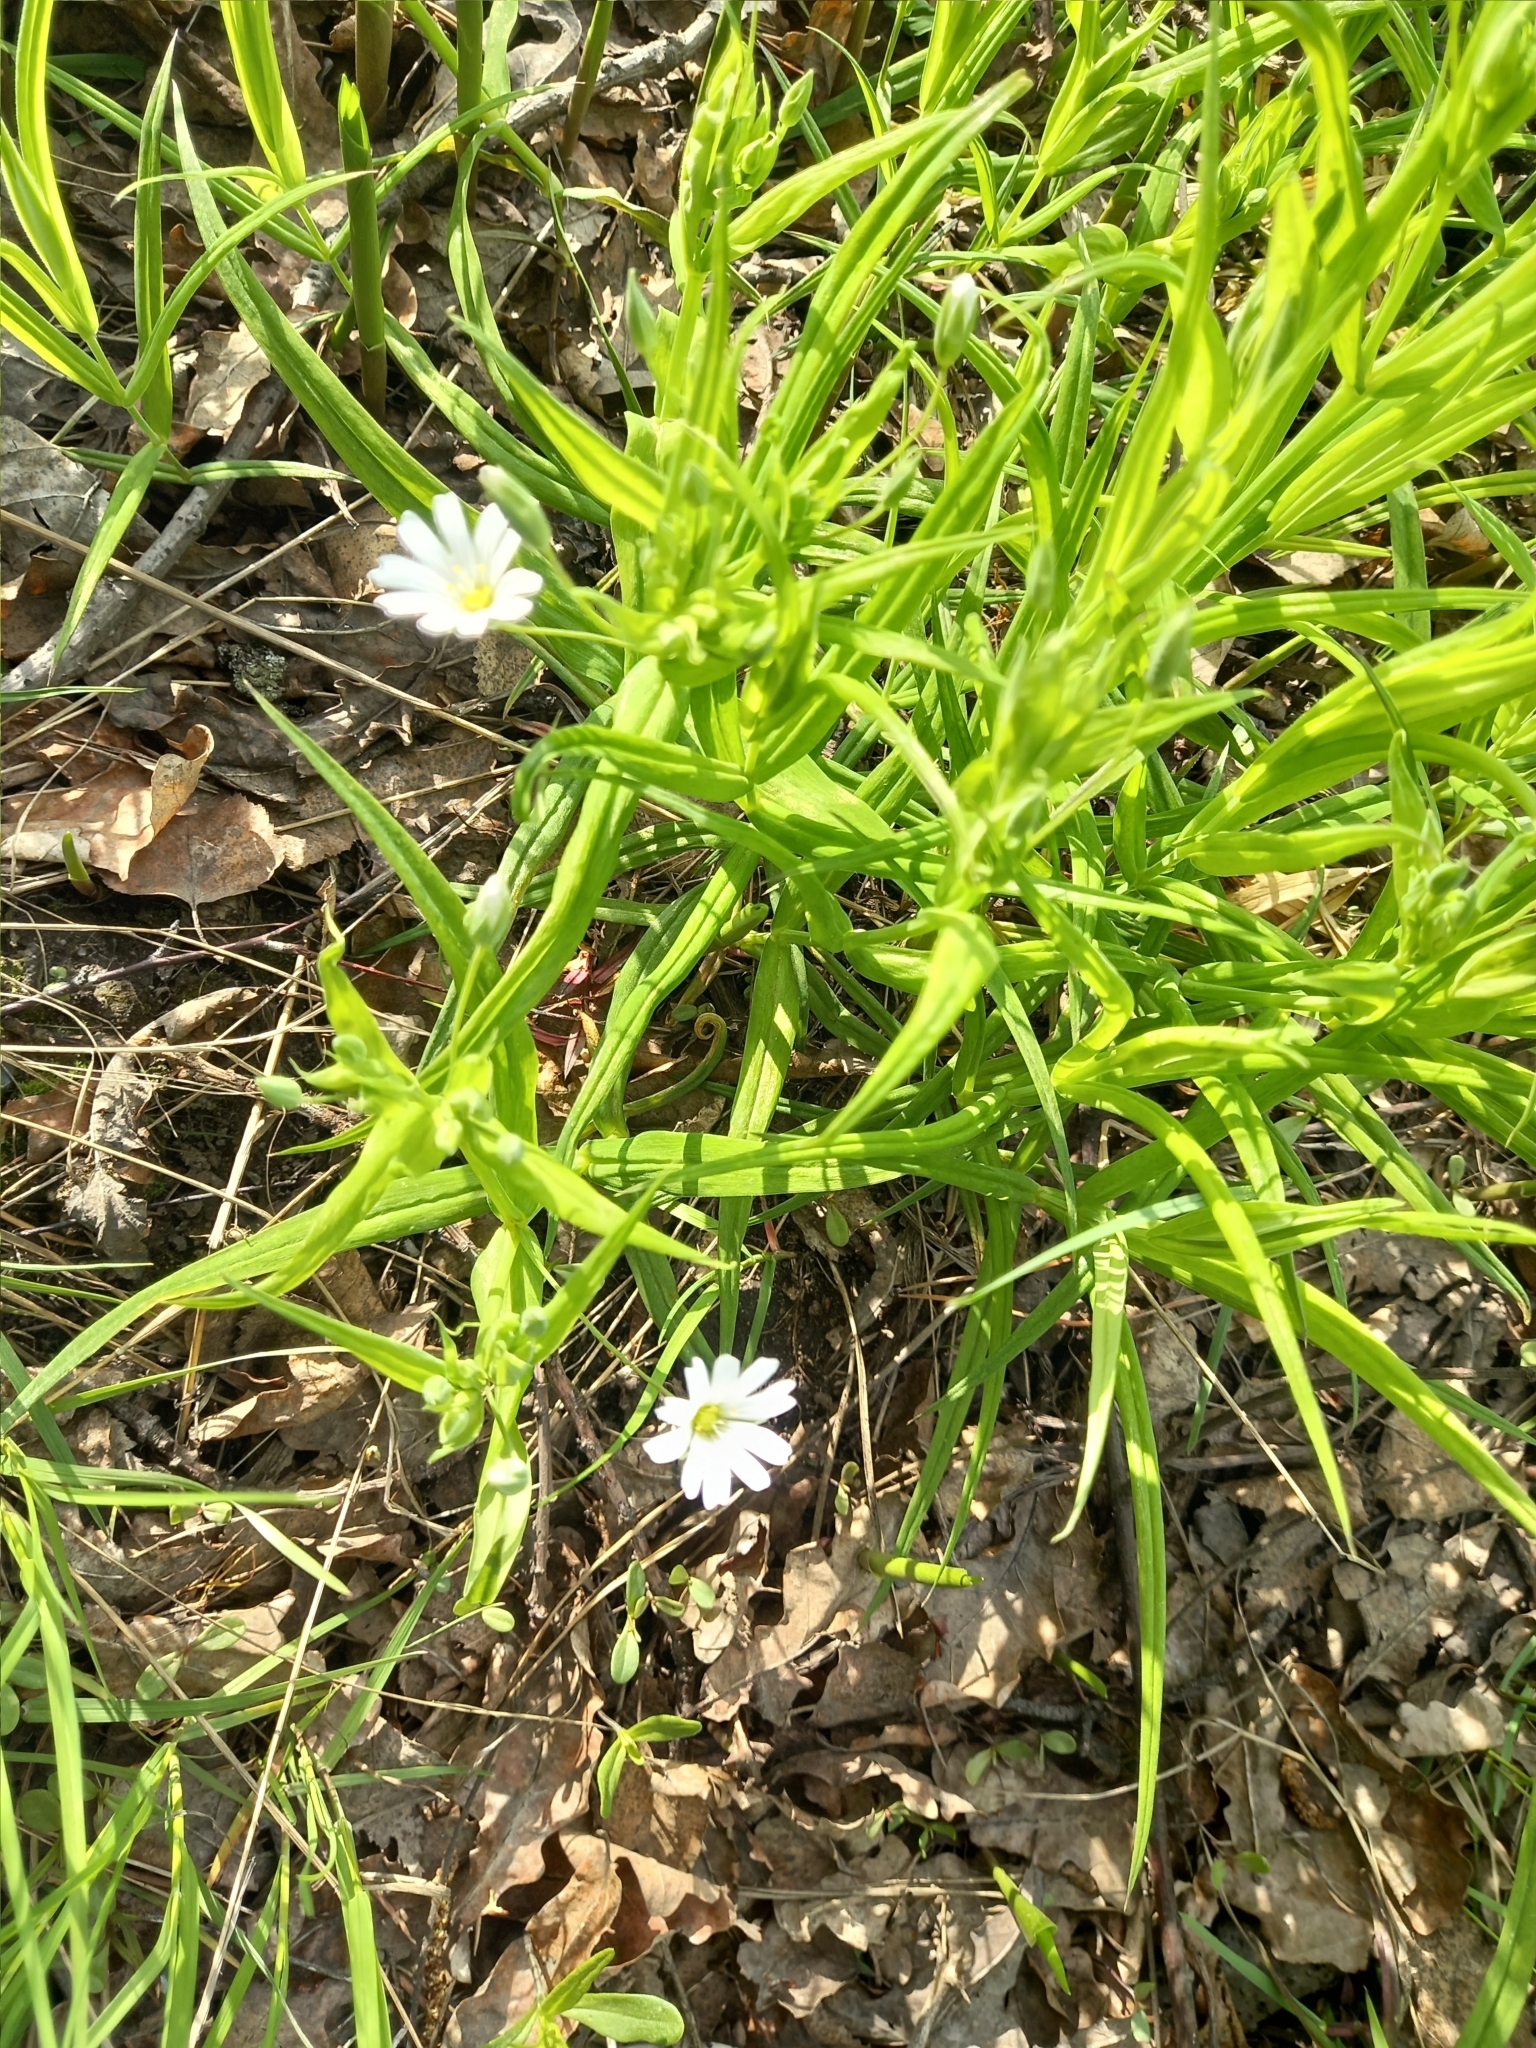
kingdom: Plantae
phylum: Tracheophyta
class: Magnoliopsida
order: Caryophyllales
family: Caryophyllaceae
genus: Rabelera
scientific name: Rabelera holostea
